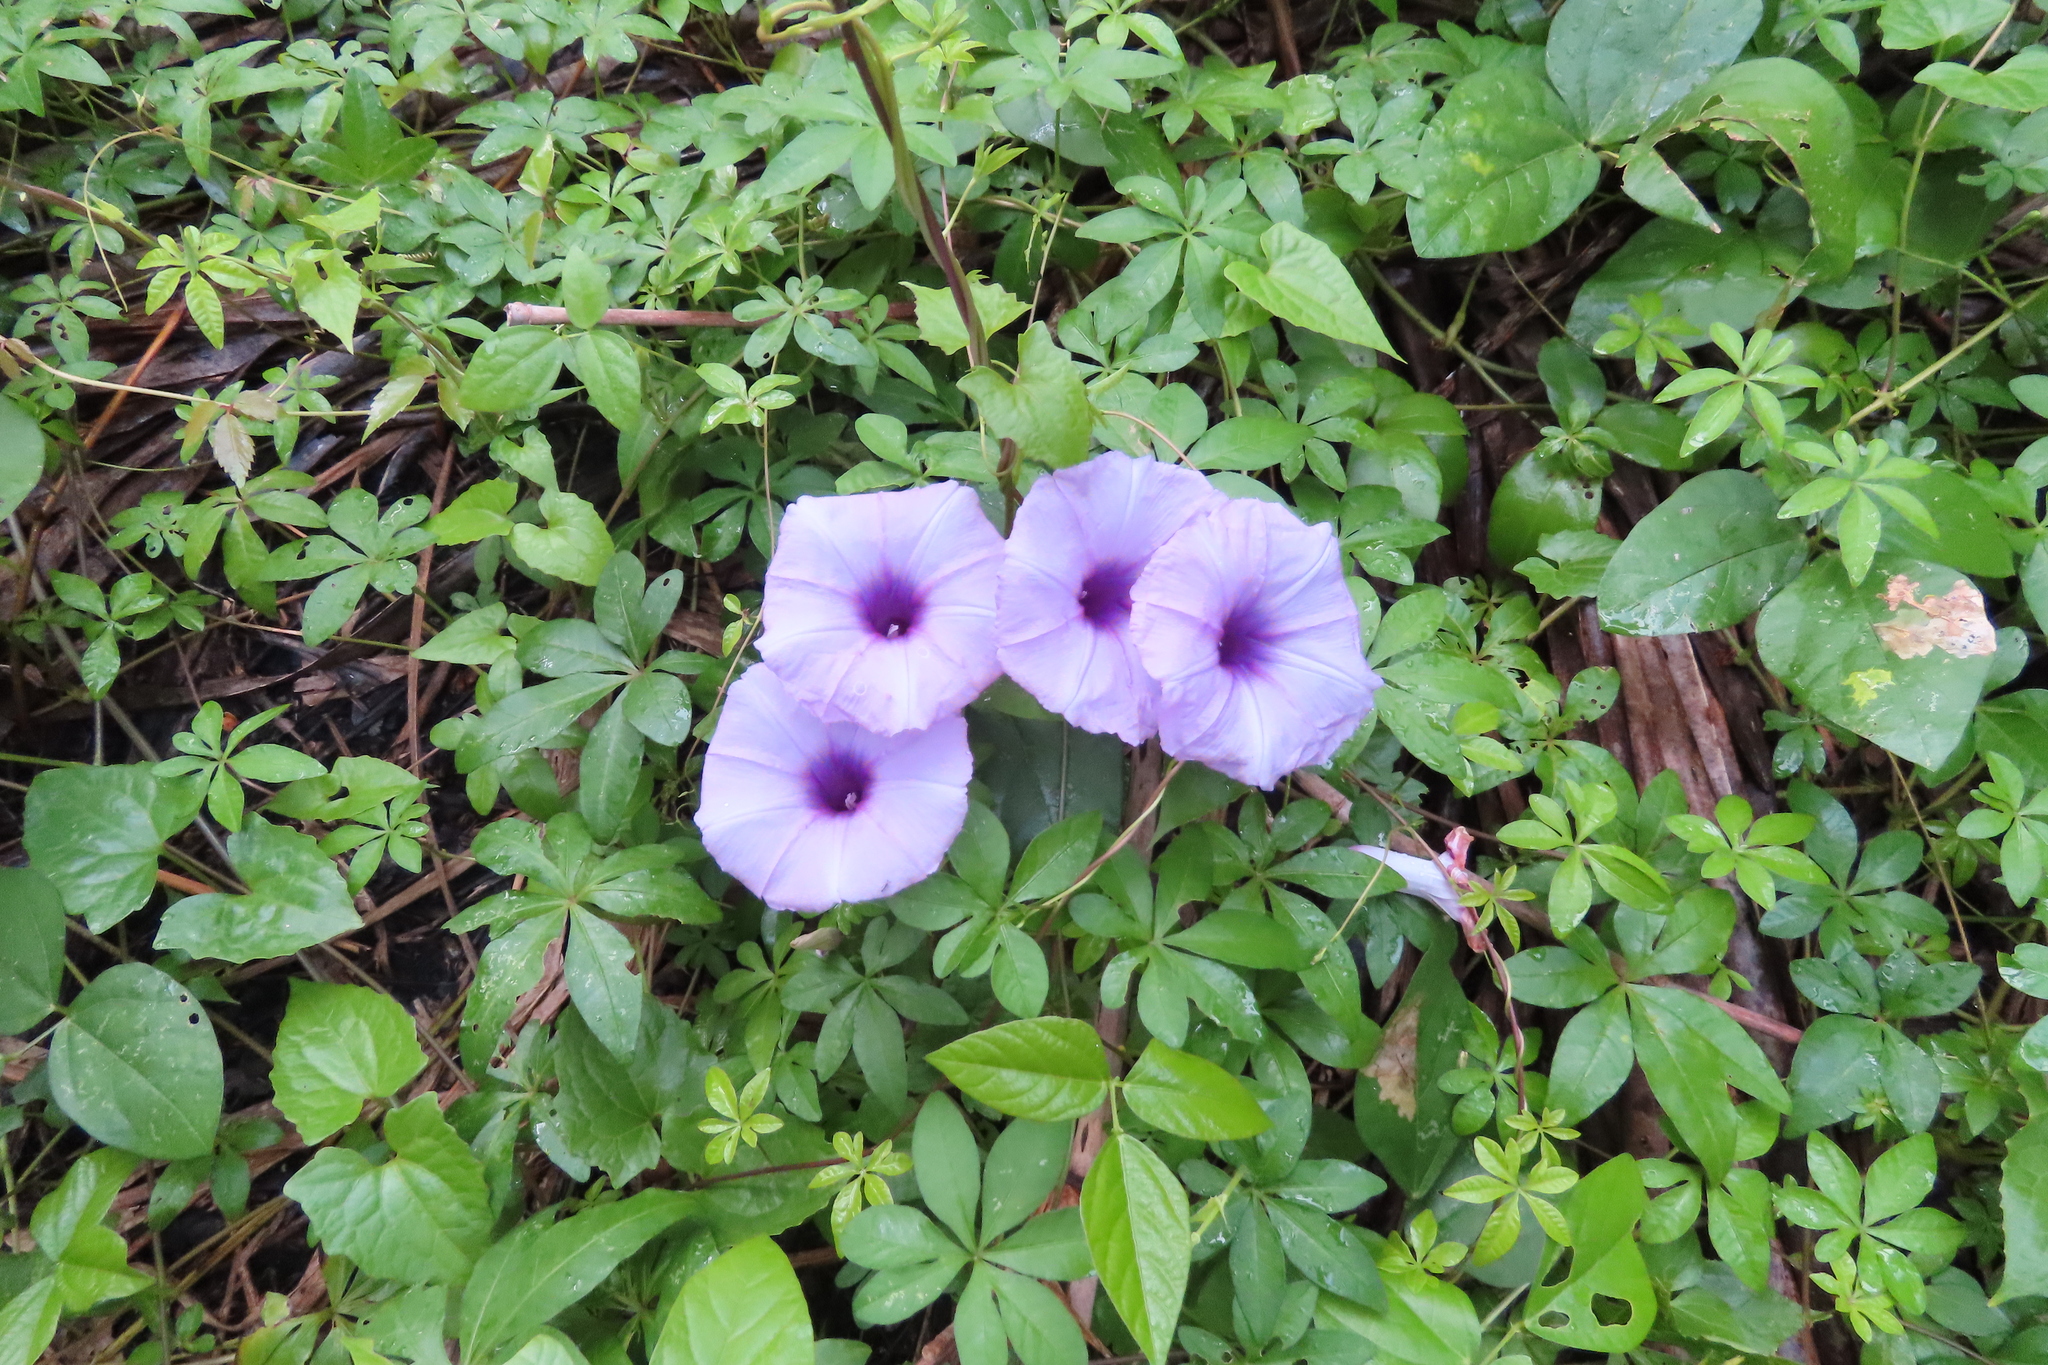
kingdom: Plantae
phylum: Tracheophyta
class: Magnoliopsida
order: Solanales
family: Convolvulaceae
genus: Ipomoea
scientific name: Ipomoea cairica
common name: Mile a minute vine
